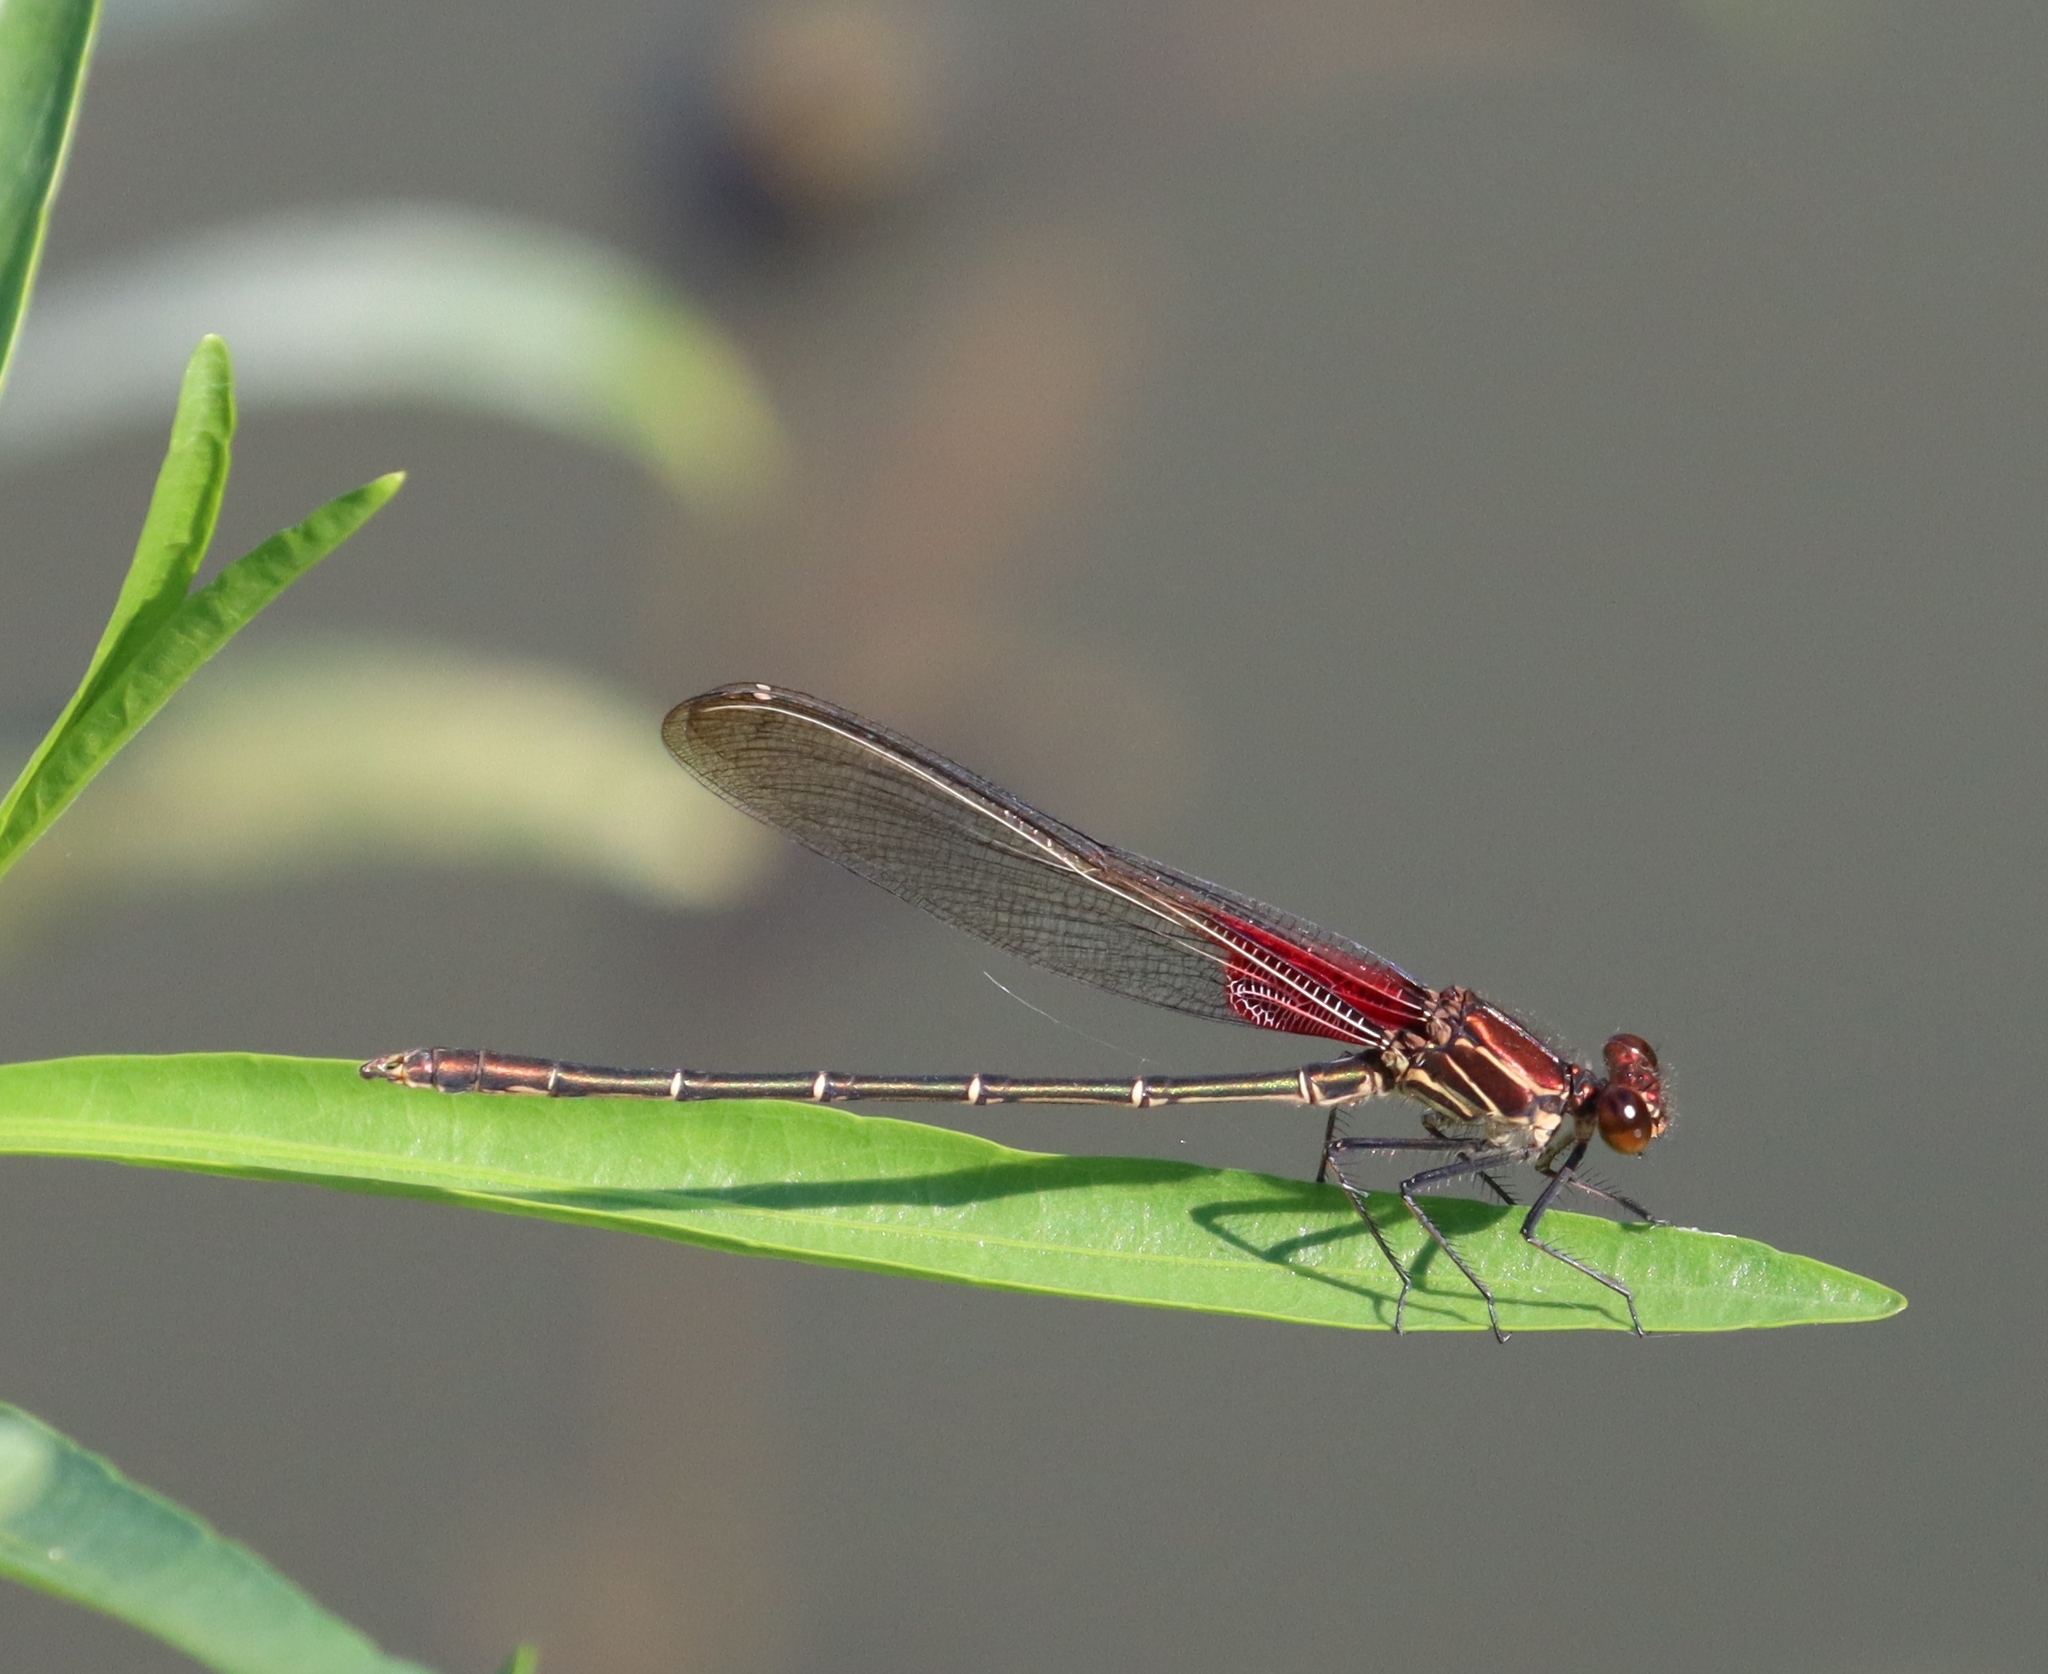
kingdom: Animalia
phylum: Arthropoda
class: Insecta
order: Odonata
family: Calopterygidae
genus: Hetaerina
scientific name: Hetaerina americana
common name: American rubyspot
